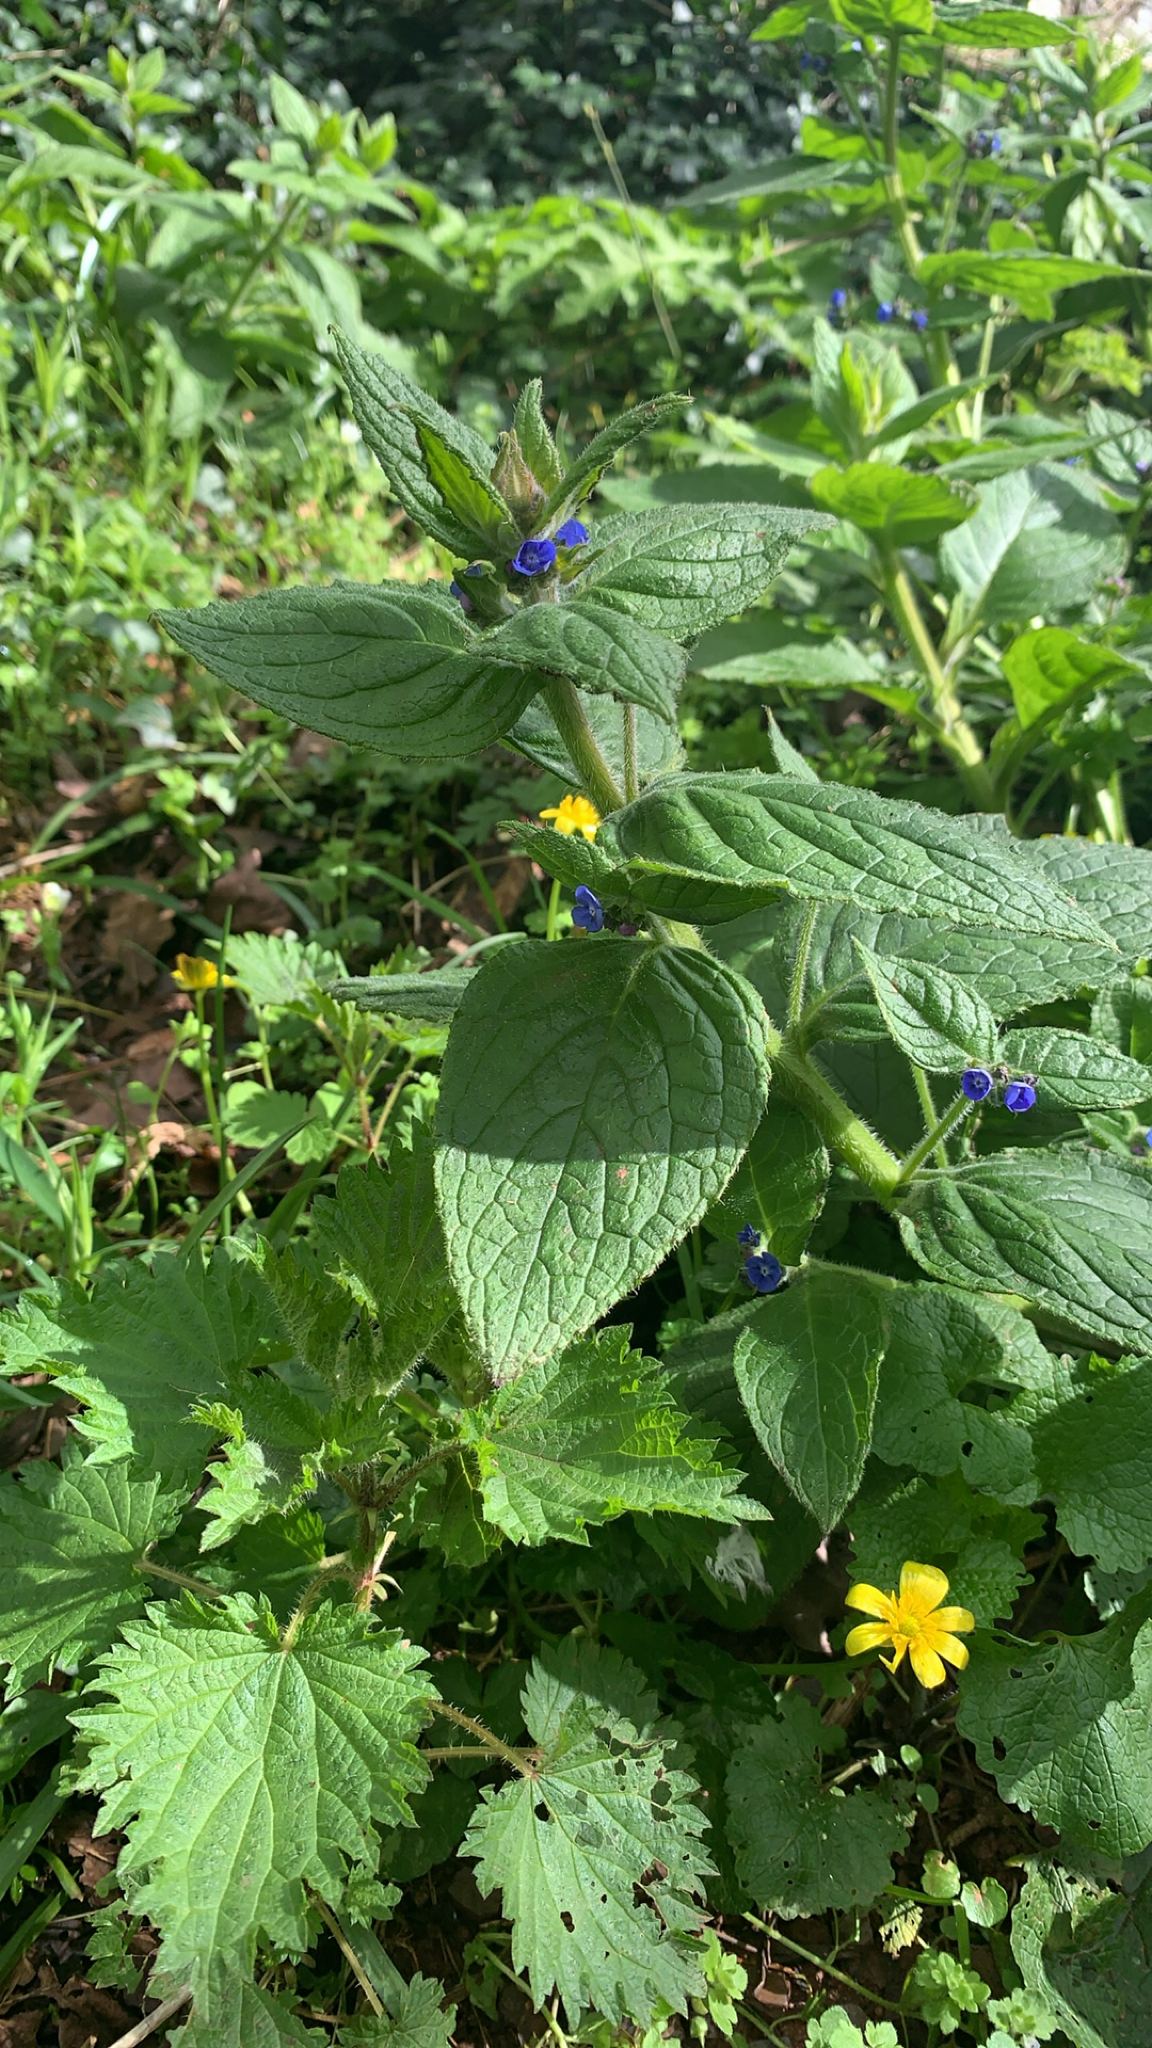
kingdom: Plantae
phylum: Tracheophyta
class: Magnoliopsida
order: Boraginales
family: Boraginaceae
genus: Pentaglottis
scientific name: Pentaglottis sempervirens
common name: Green alkanet
